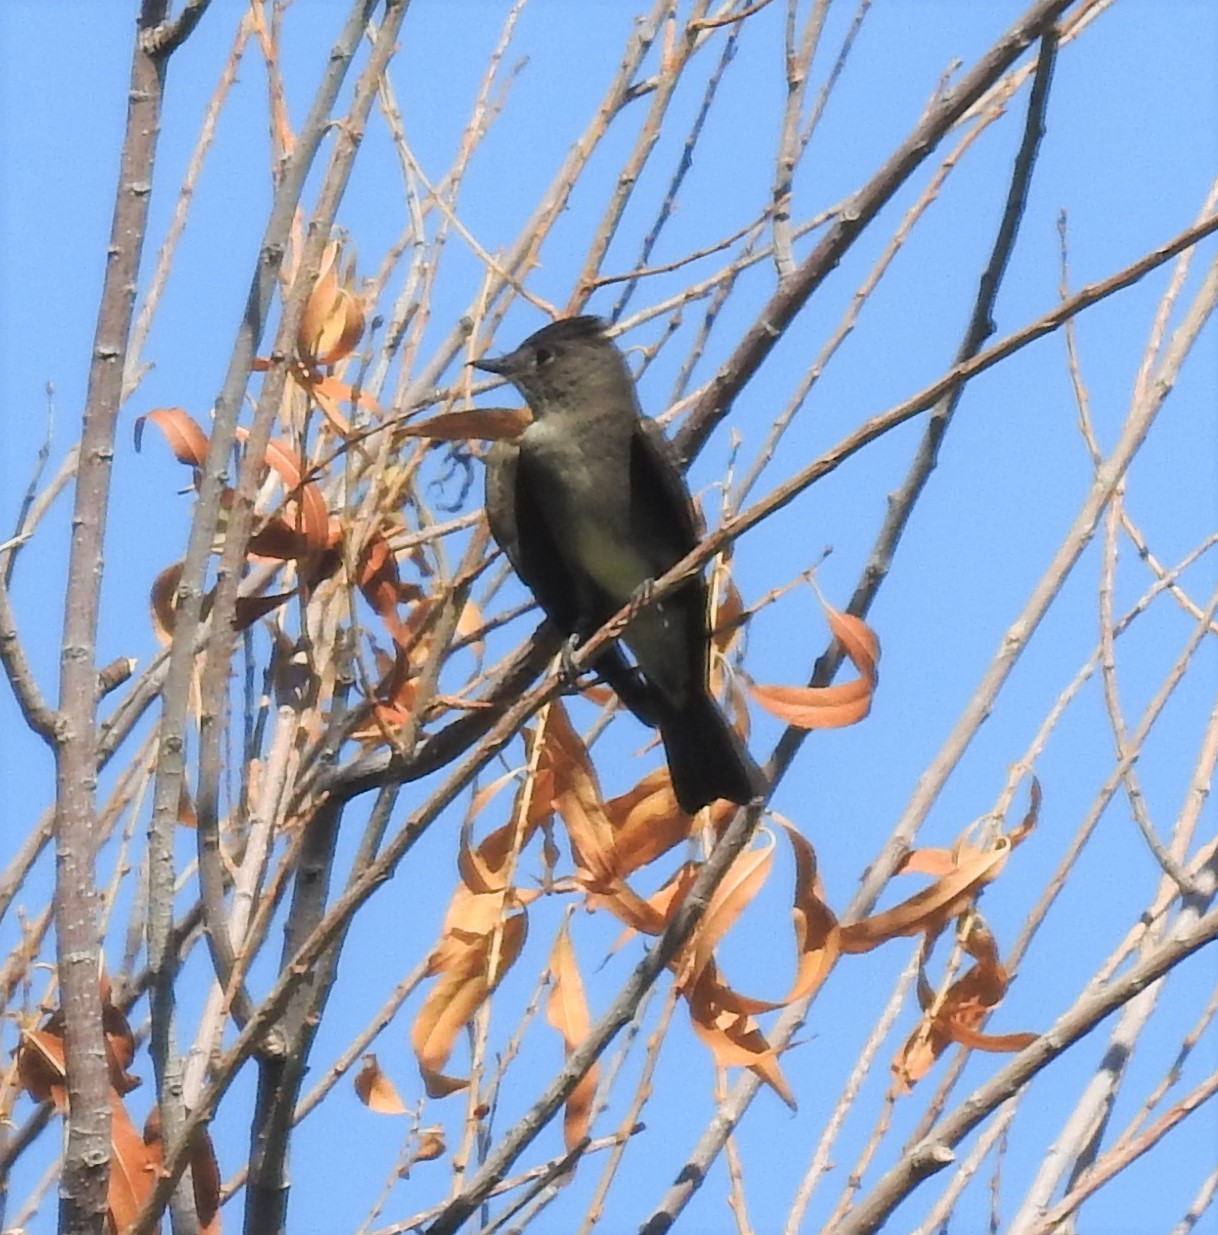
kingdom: Animalia
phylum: Chordata
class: Aves
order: Passeriformes
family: Tyrannidae
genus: Contopus
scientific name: Contopus sordidulus
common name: Western wood-pewee
